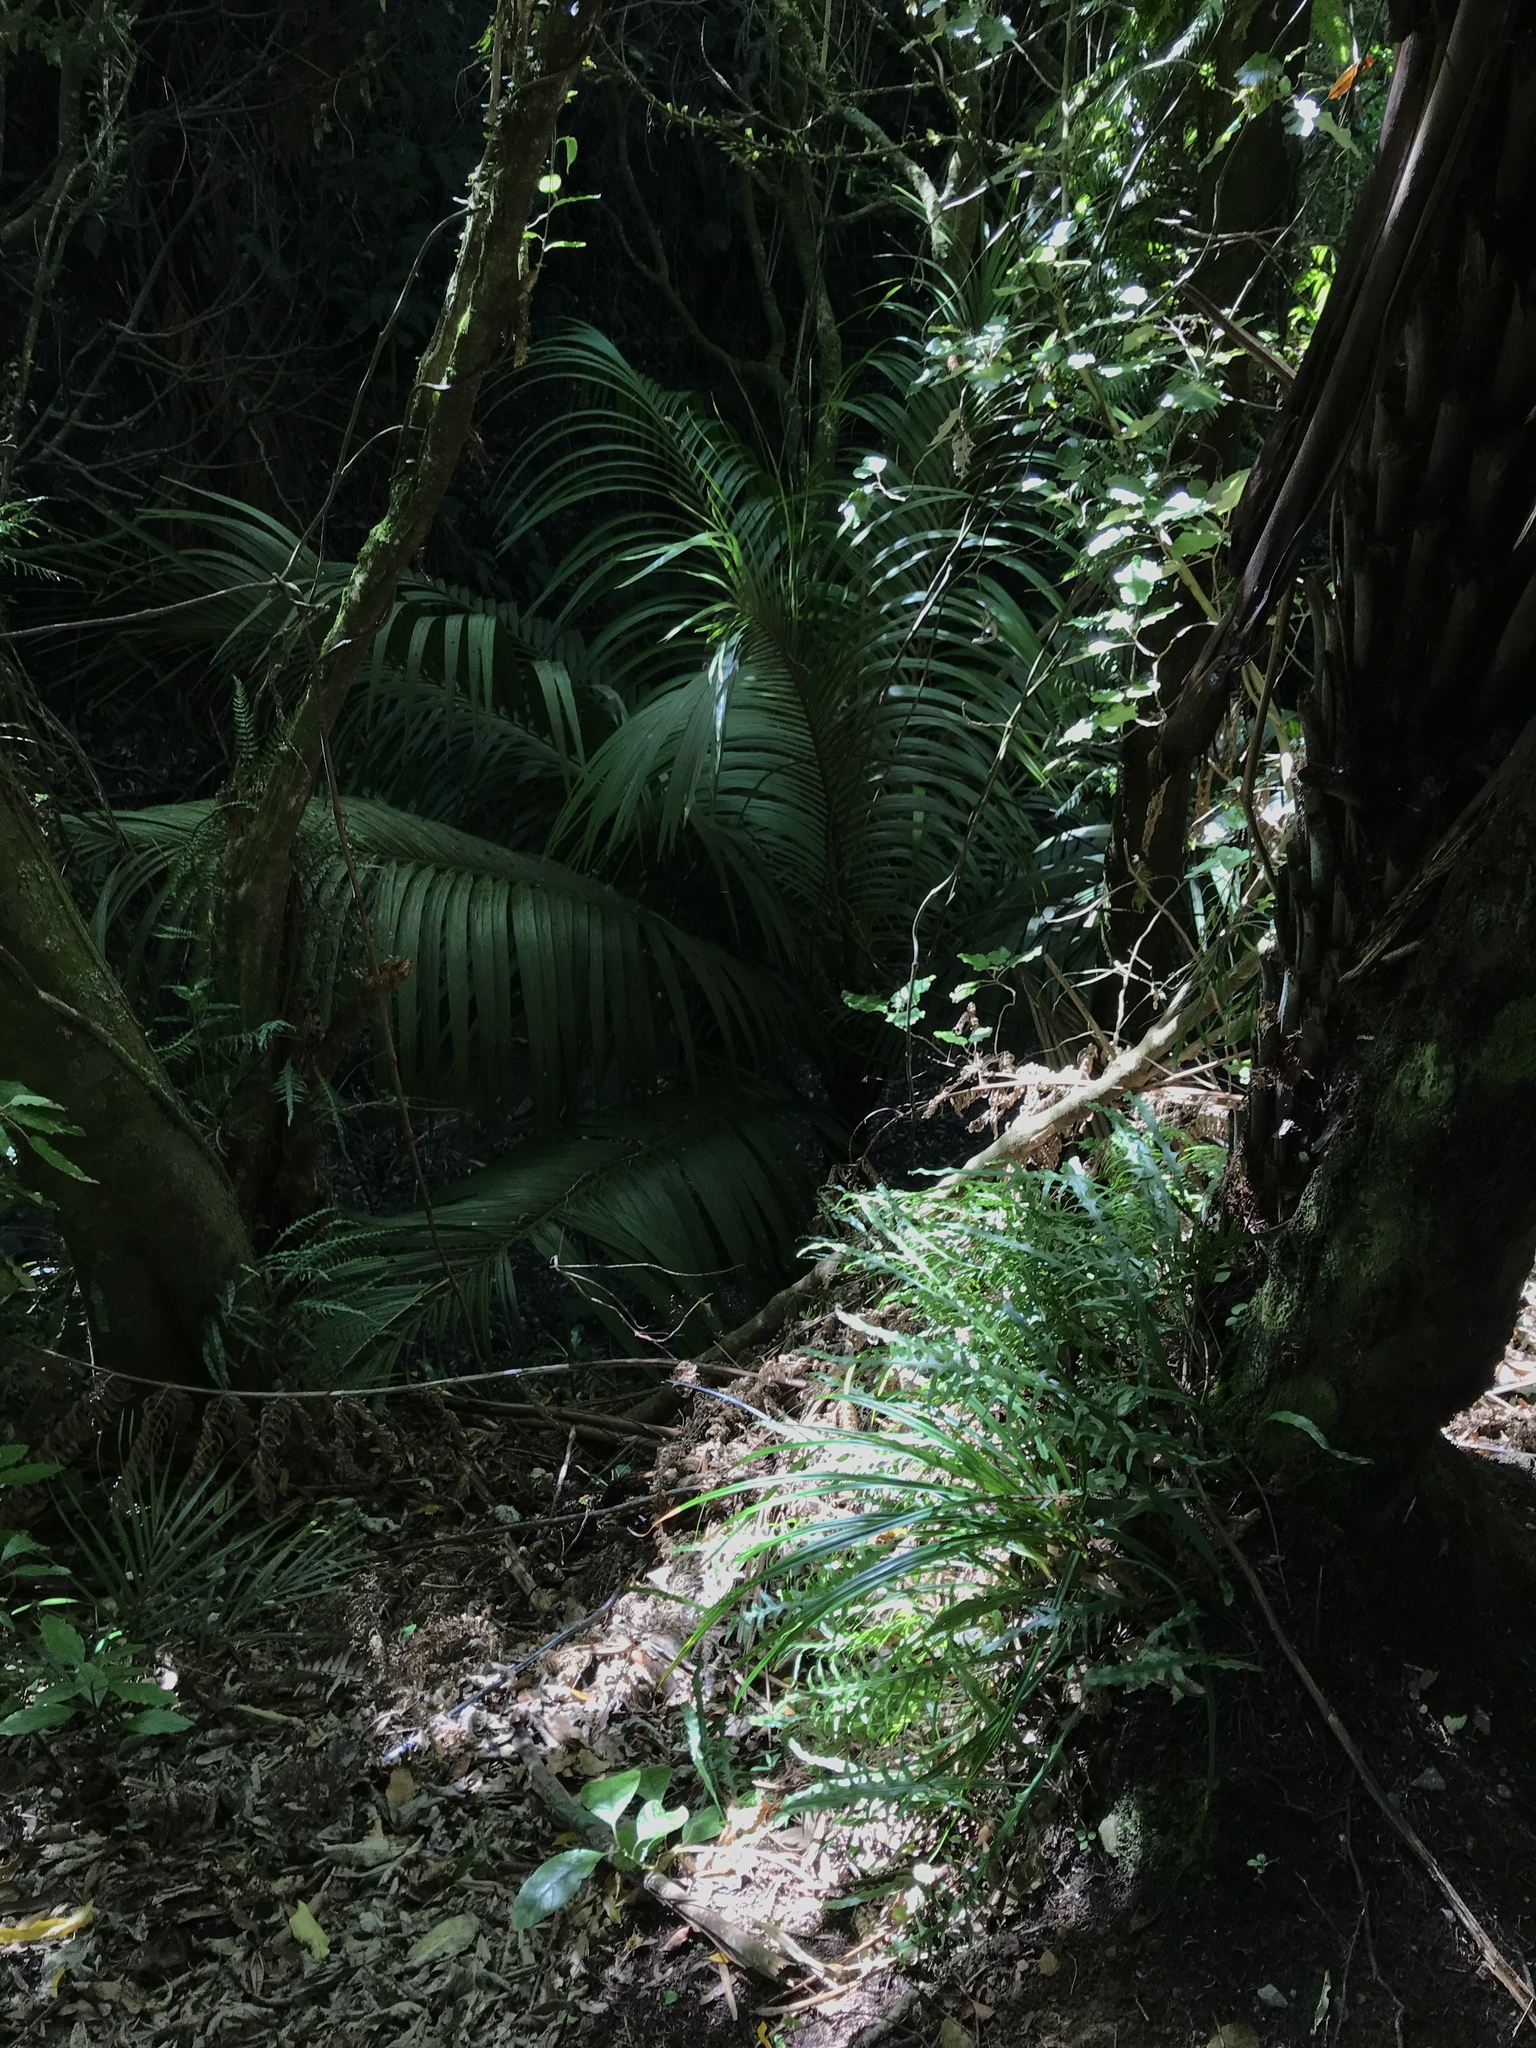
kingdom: Plantae
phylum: Tracheophyta
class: Liliopsida
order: Arecales
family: Arecaceae
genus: Rhopalostylis
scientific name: Rhopalostylis sapida
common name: Feather-duster palm
